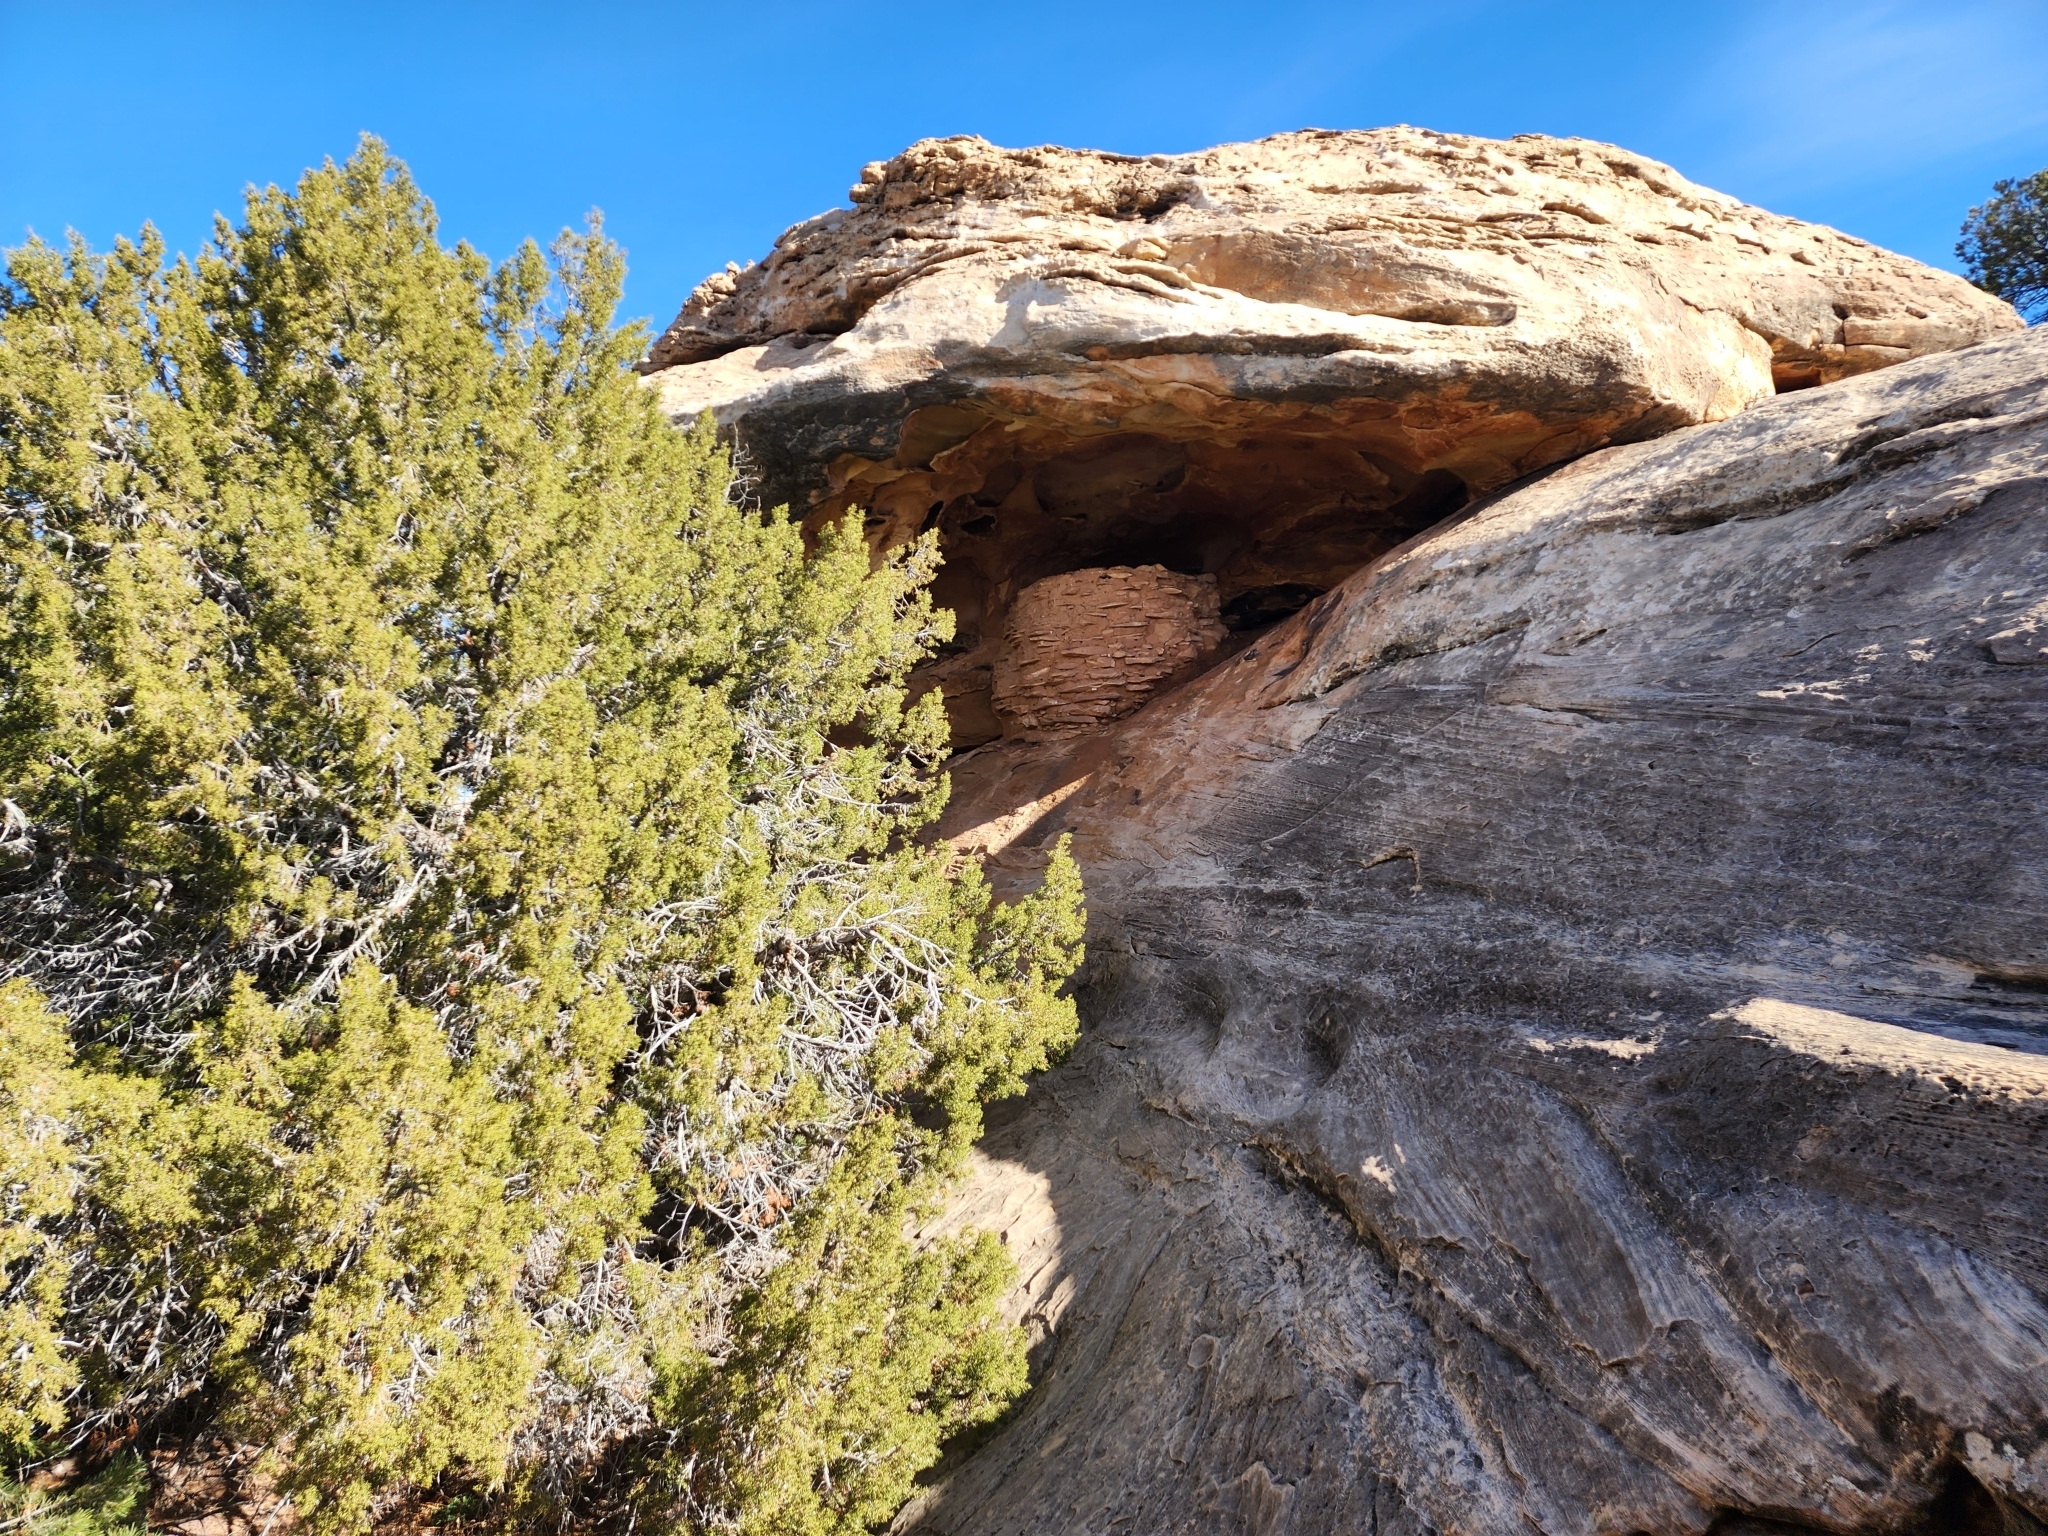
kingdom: Plantae
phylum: Tracheophyta
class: Pinopsida
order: Pinales
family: Cupressaceae
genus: Juniperus
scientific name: Juniperus osteosperma
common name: Utah juniper
